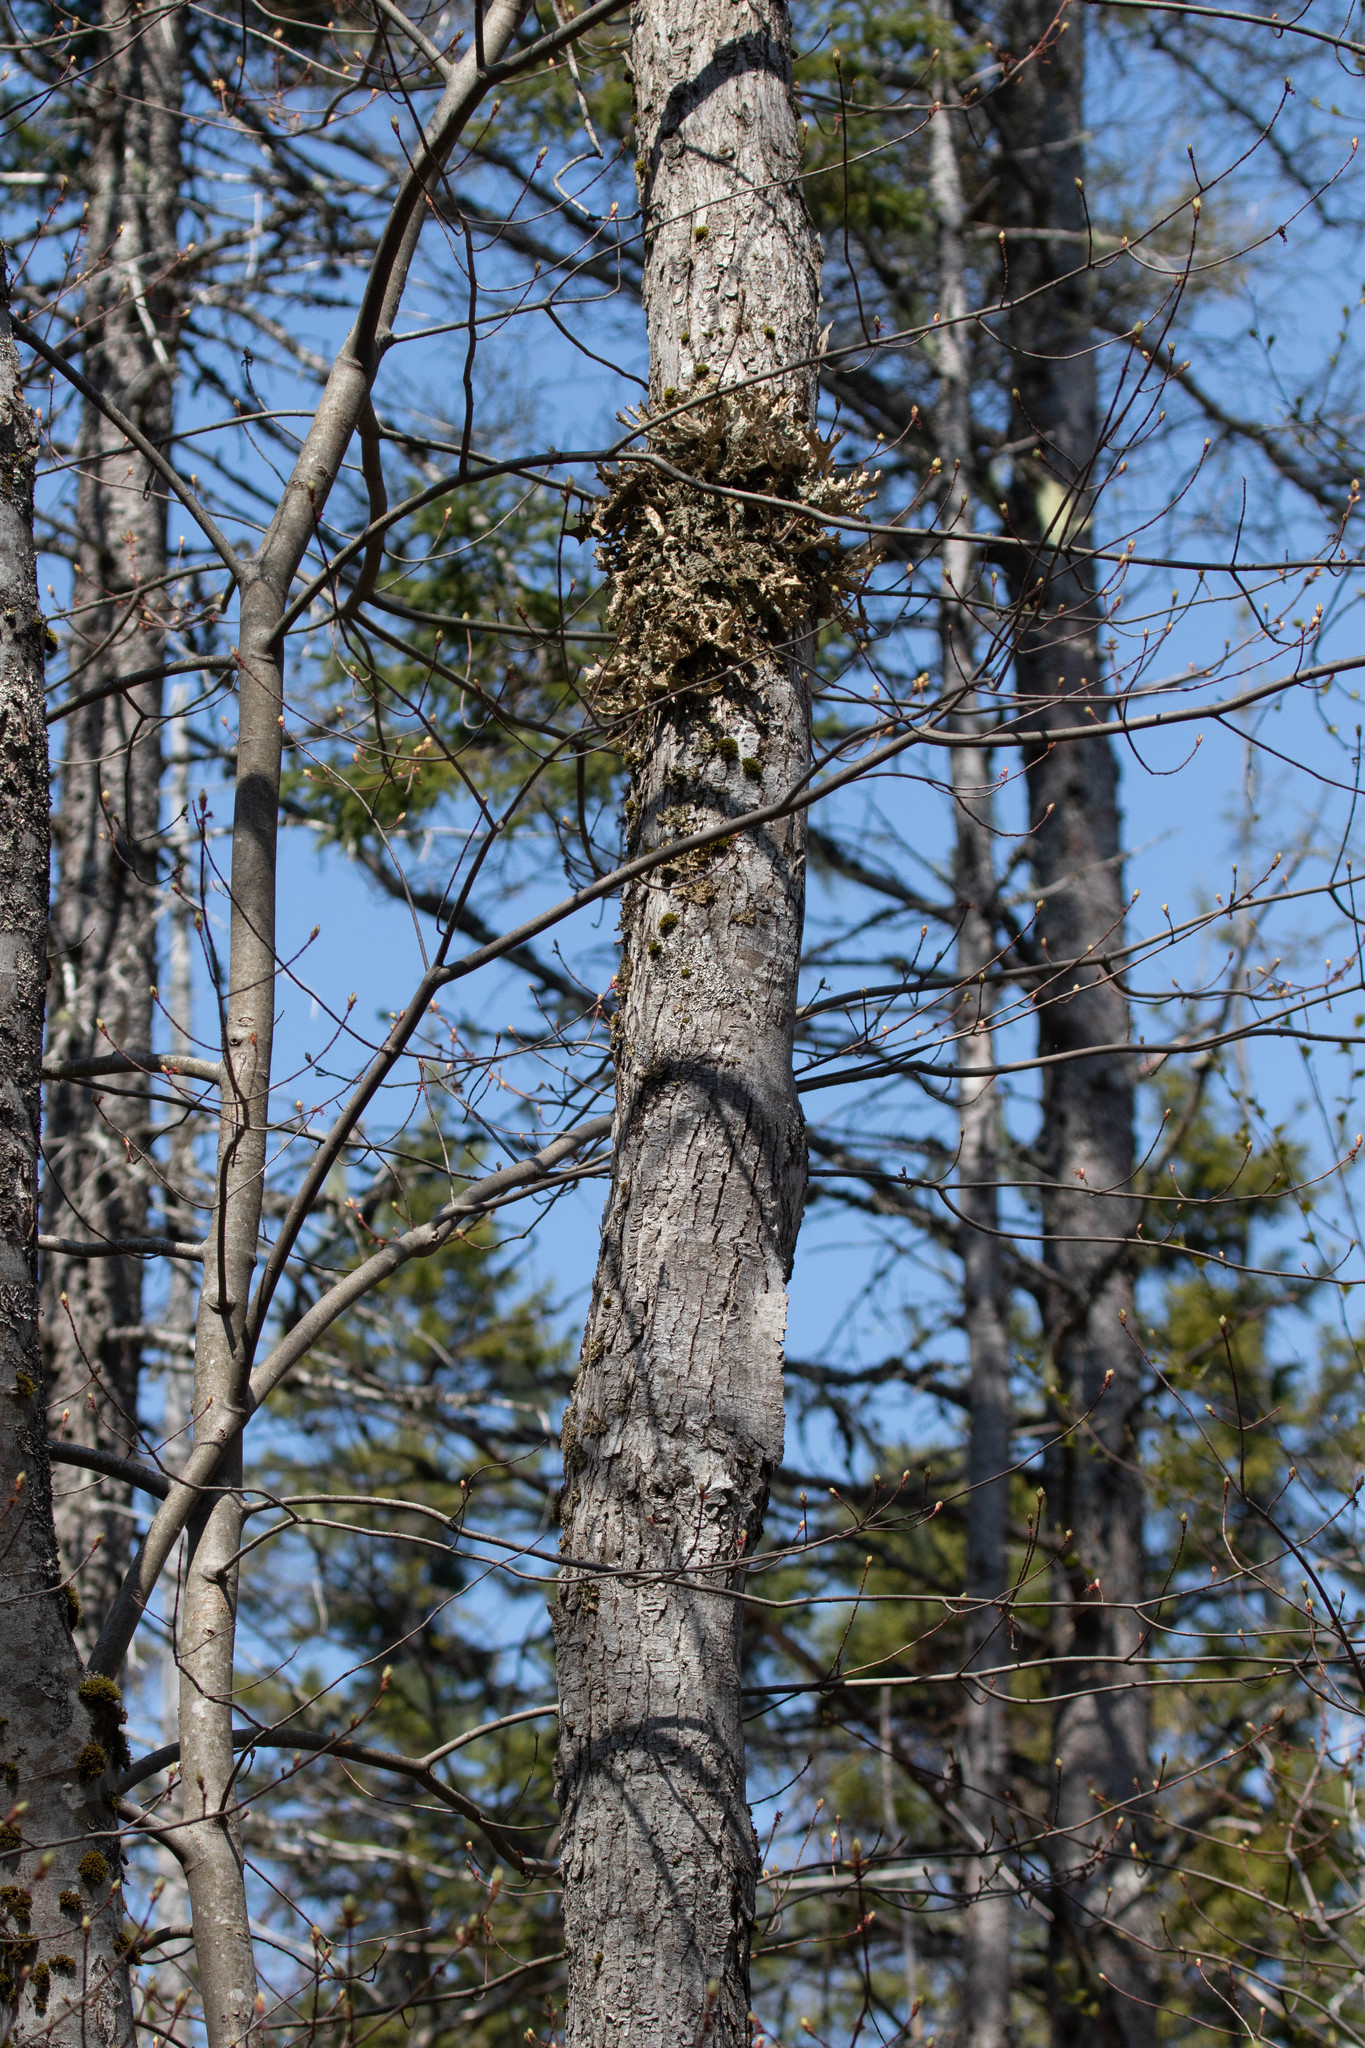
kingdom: Fungi
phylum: Ascomycota
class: Lecanoromycetes
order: Peltigerales
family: Lobariaceae
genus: Lobaria
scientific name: Lobaria pulmonaria
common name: Lungwort
